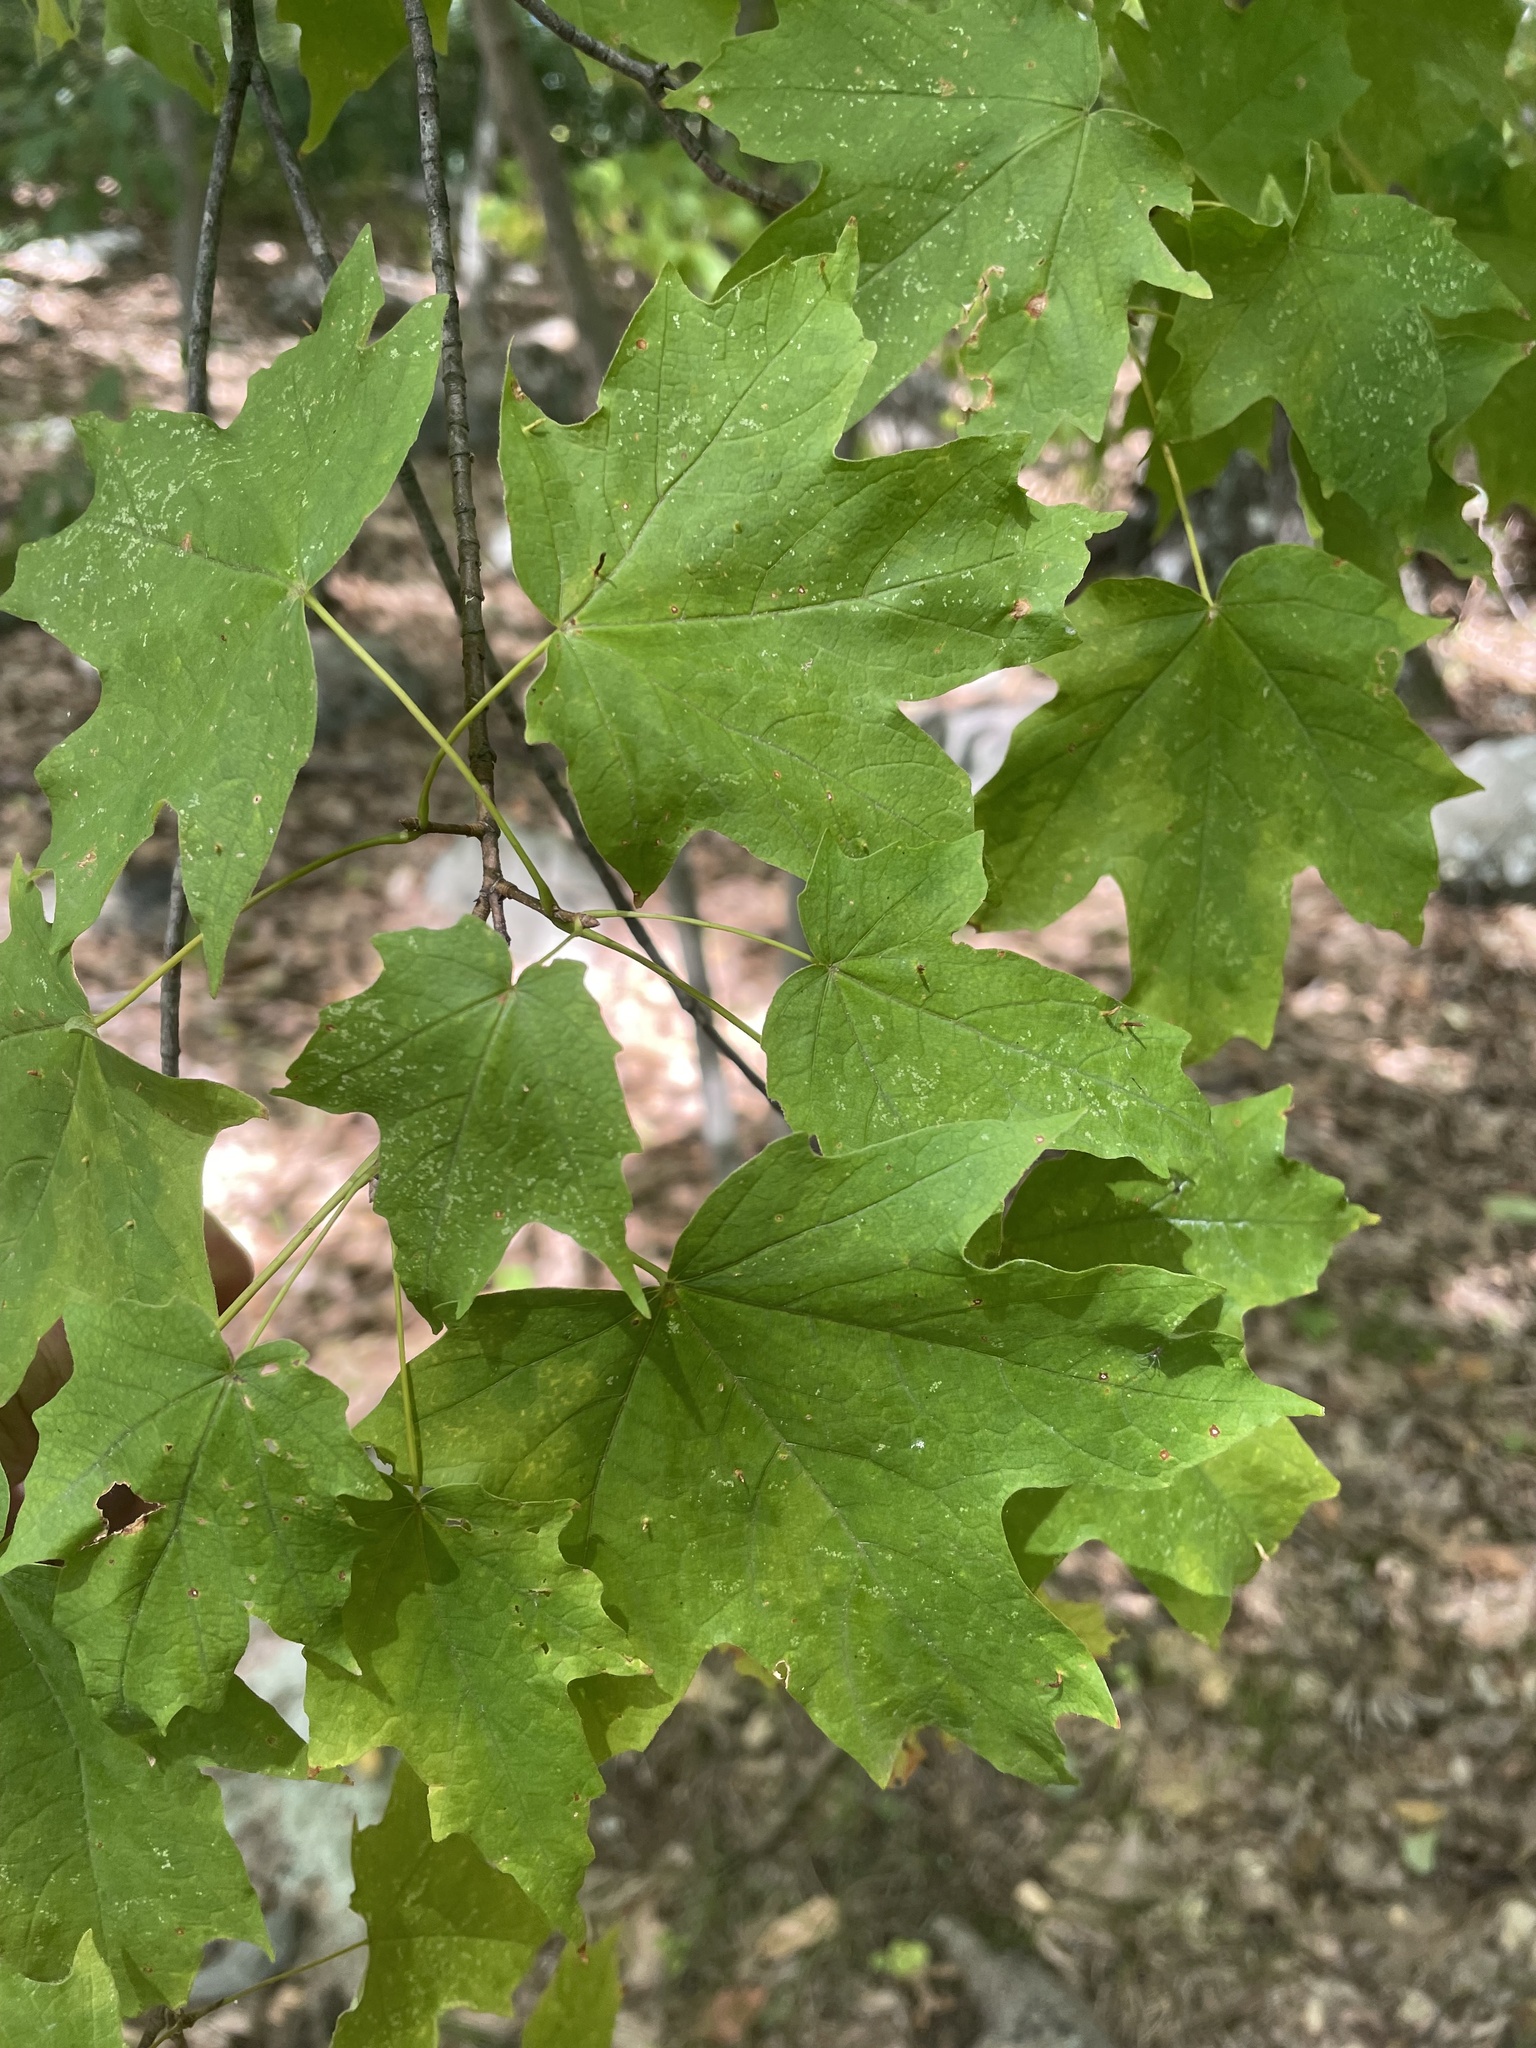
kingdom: Plantae
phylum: Tracheophyta
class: Magnoliopsida
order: Sapindales
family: Sapindaceae
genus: Acer
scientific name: Acer saccharum
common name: Sugar maple
